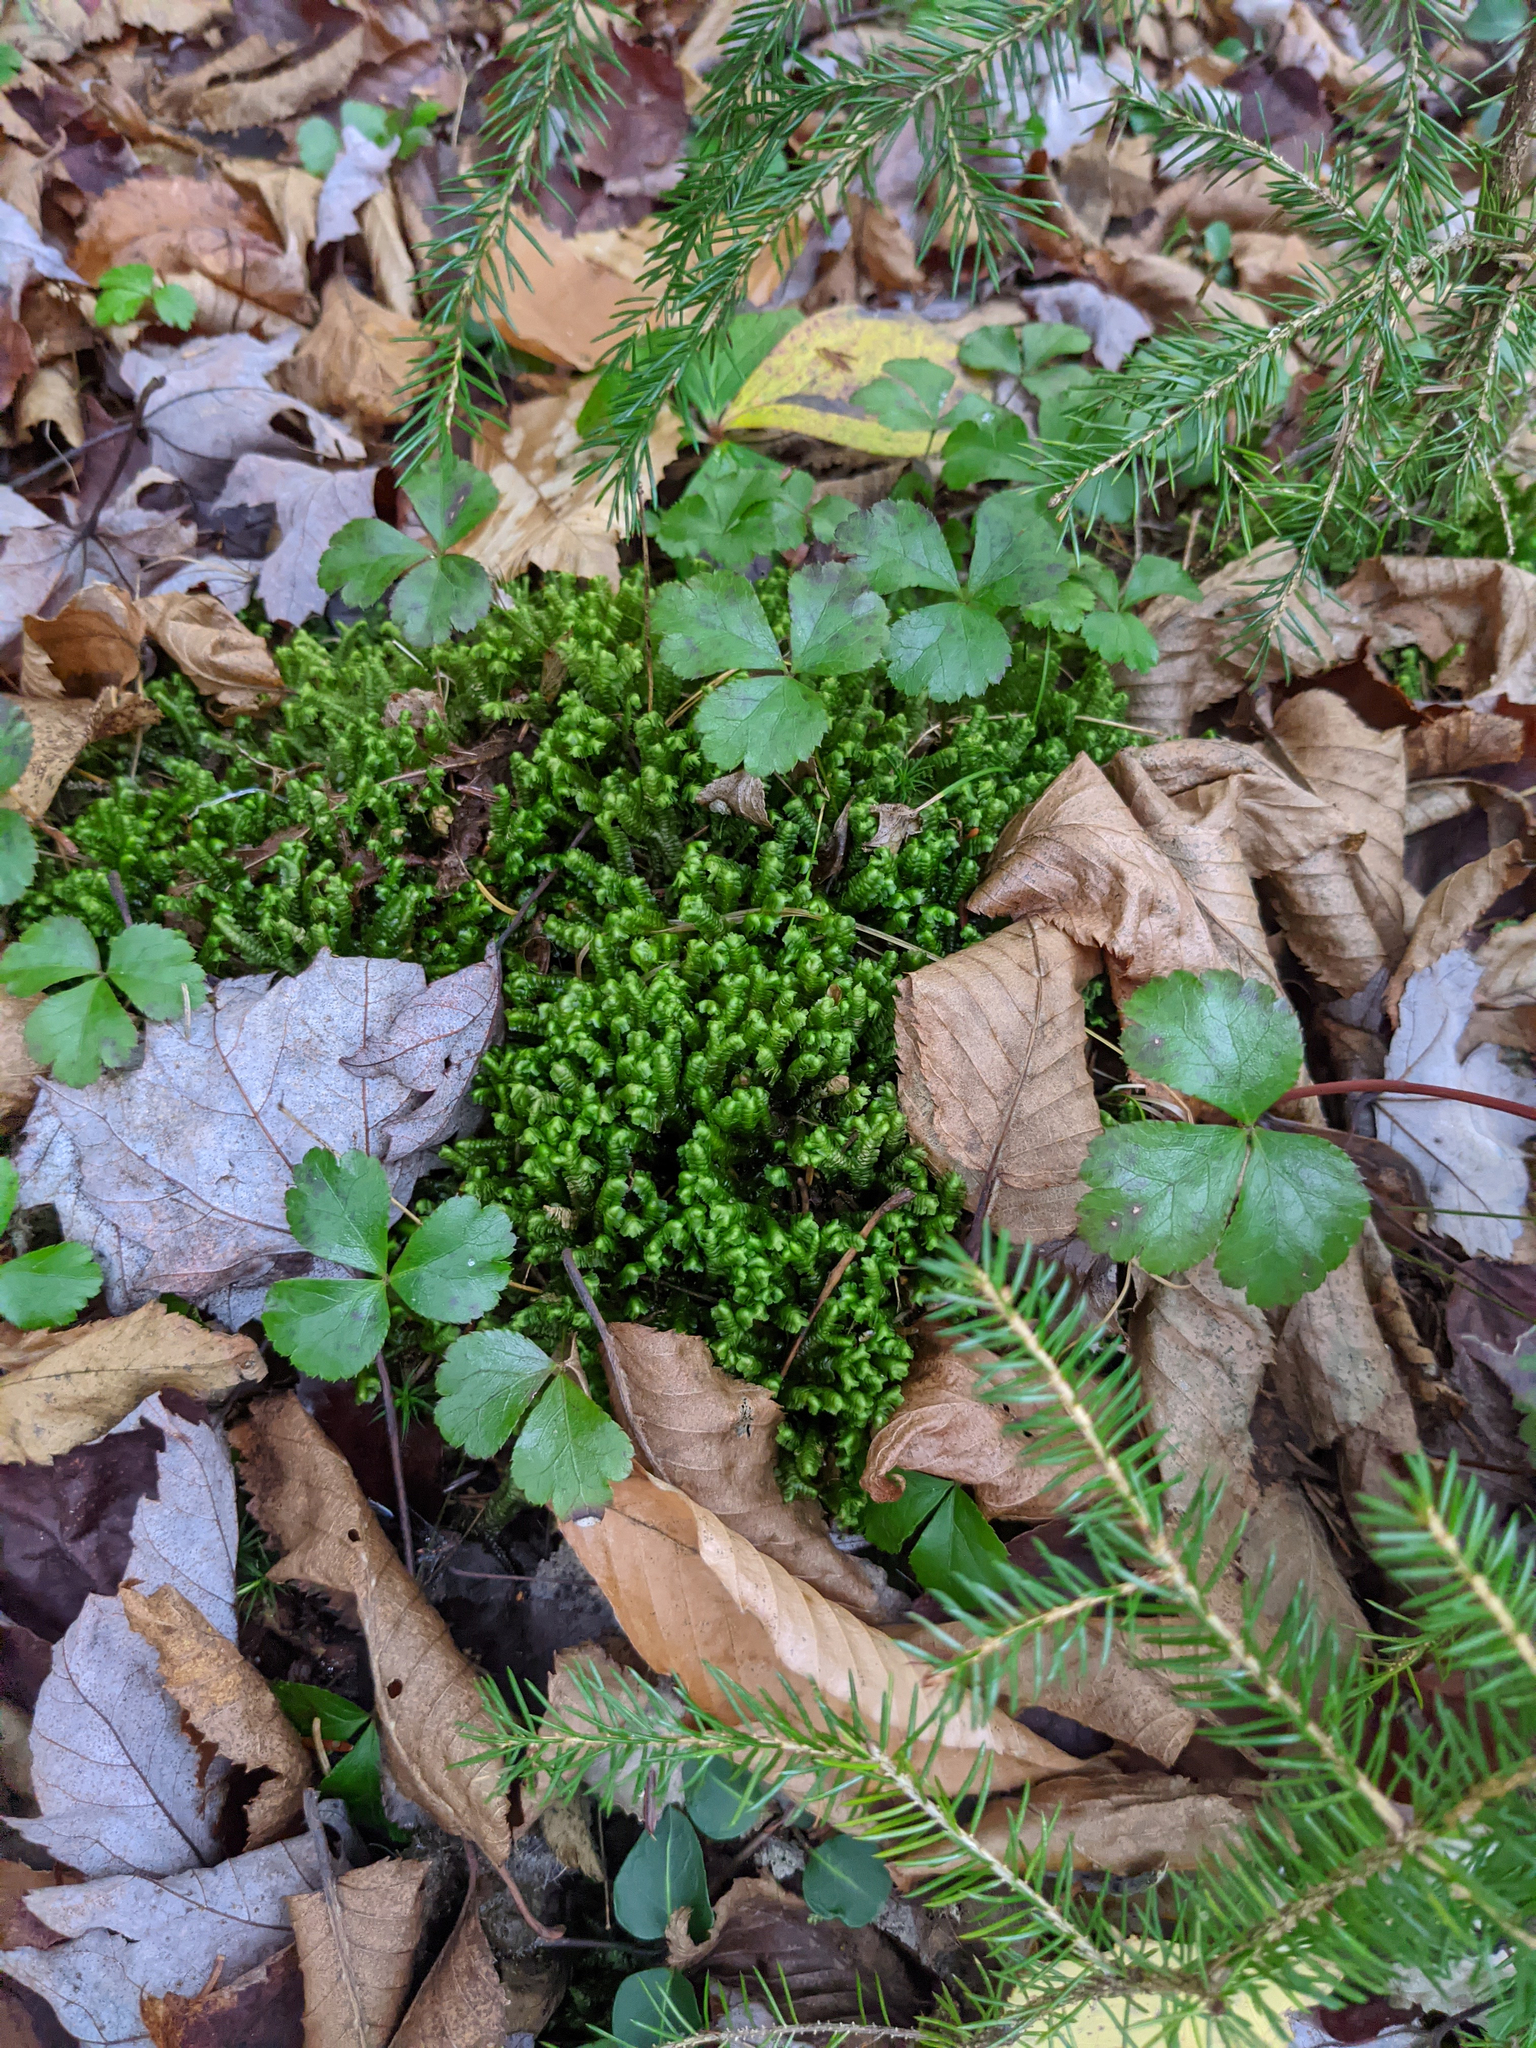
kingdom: Plantae
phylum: Tracheophyta
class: Magnoliopsida
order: Ranunculales
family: Ranunculaceae
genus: Coptis
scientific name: Coptis trifolia
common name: Canker-root
